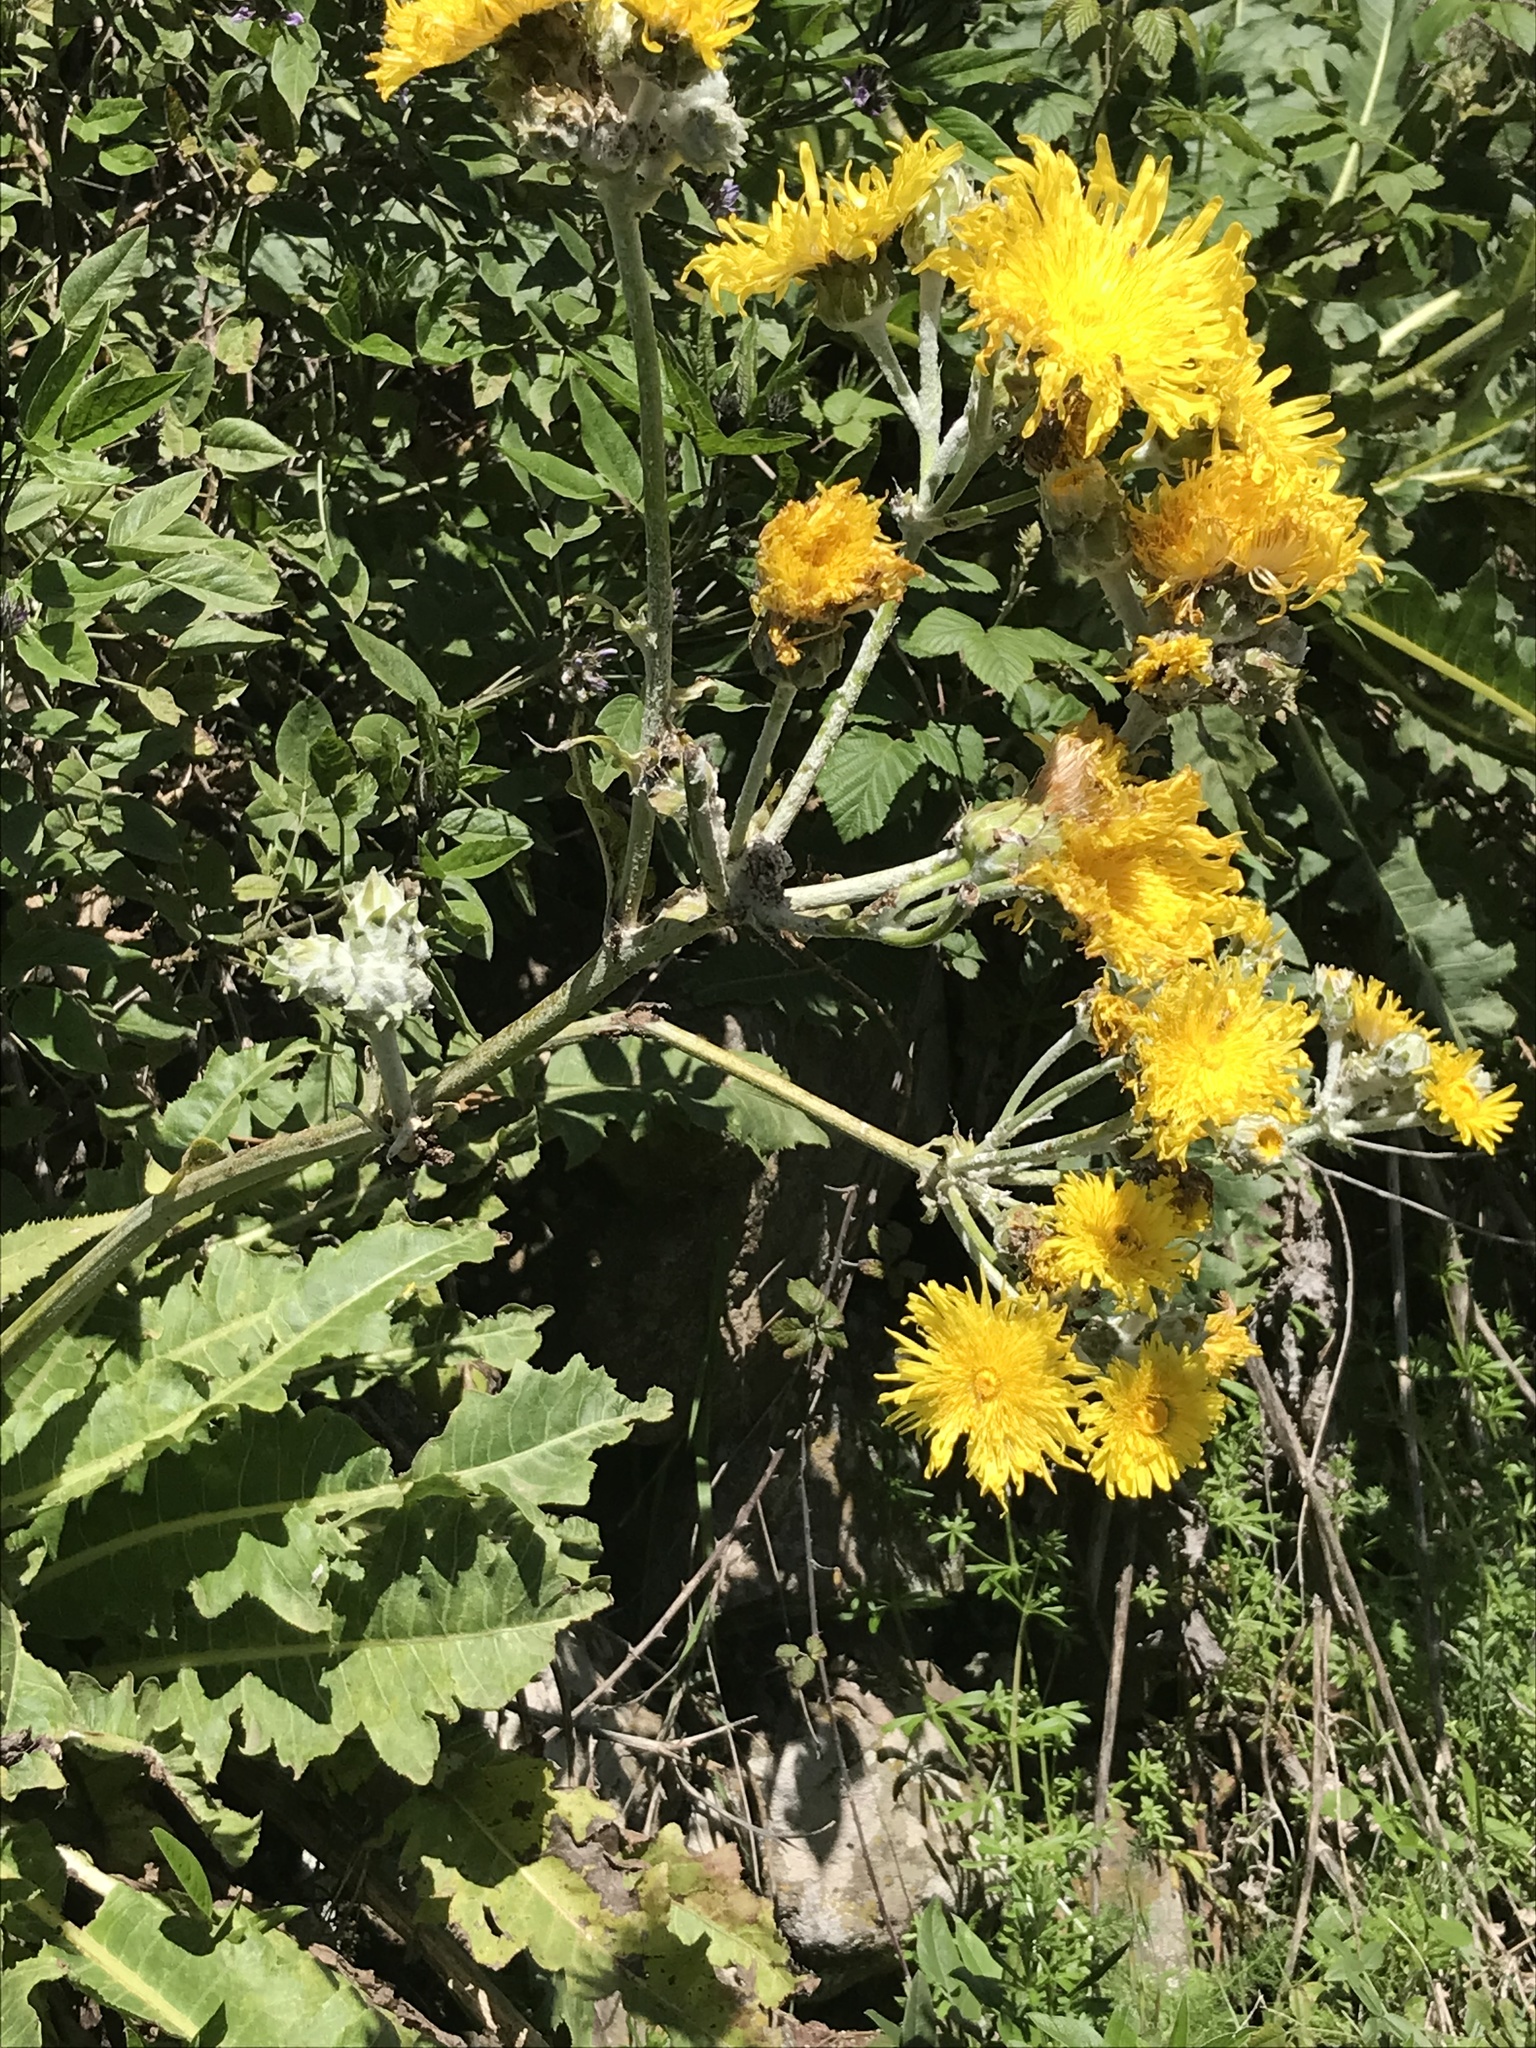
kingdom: Plantae
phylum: Tracheophyta
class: Magnoliopsida
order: Asterales
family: Asteraceae
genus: Sonchus
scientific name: Sonchus acaulis
